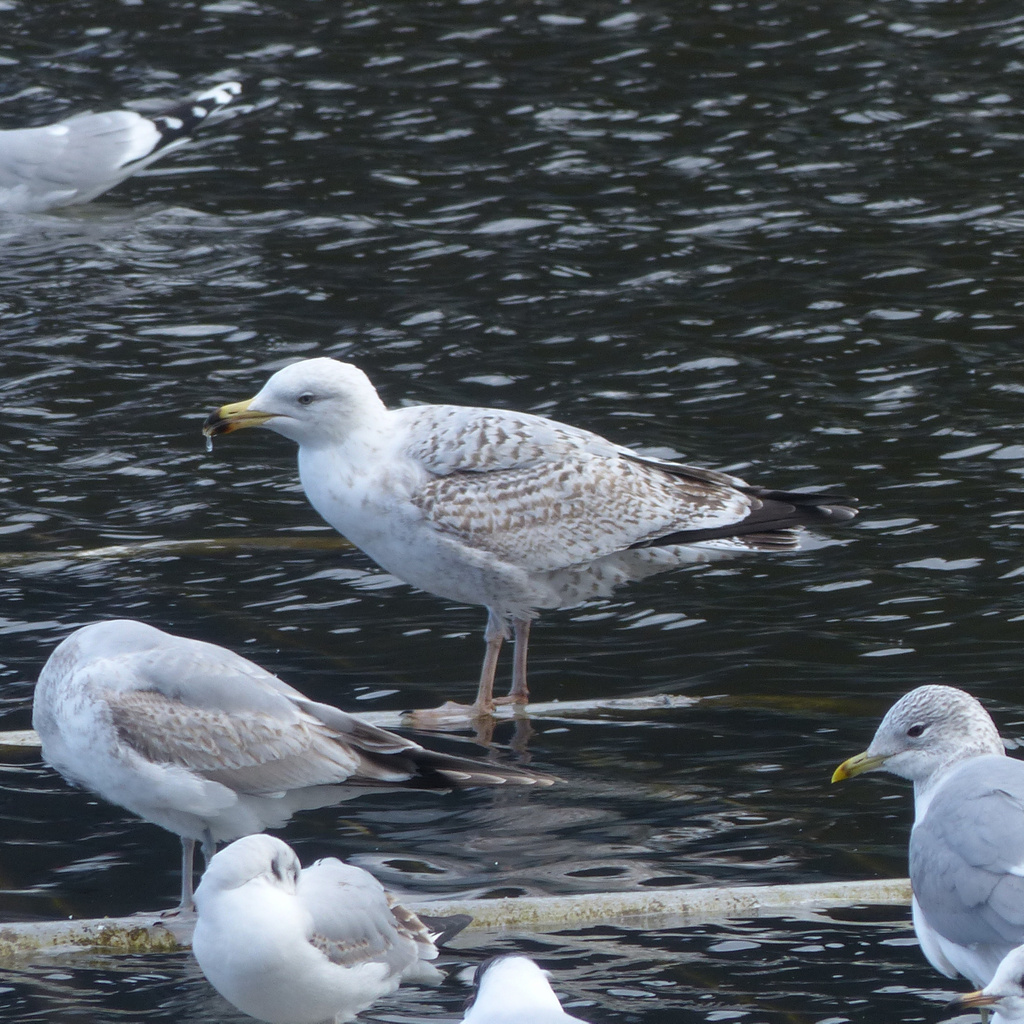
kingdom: Animalia
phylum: Chordata
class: Aves
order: Charadriiformes
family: Laridae
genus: Larus
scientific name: Larus argentatus
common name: Herring gull
